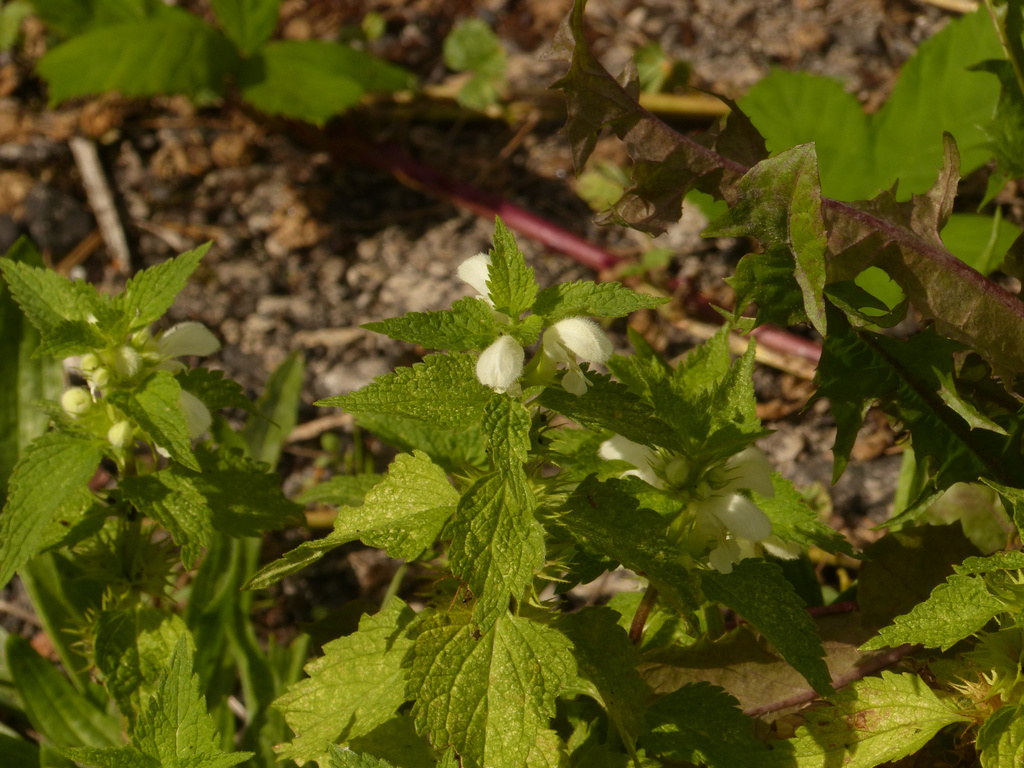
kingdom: Plantae
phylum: Tracheophyta
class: Magnoliopsida
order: Lamiales
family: Lamiaceae
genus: Lamium
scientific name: Lamium album
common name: White dead-nettle
